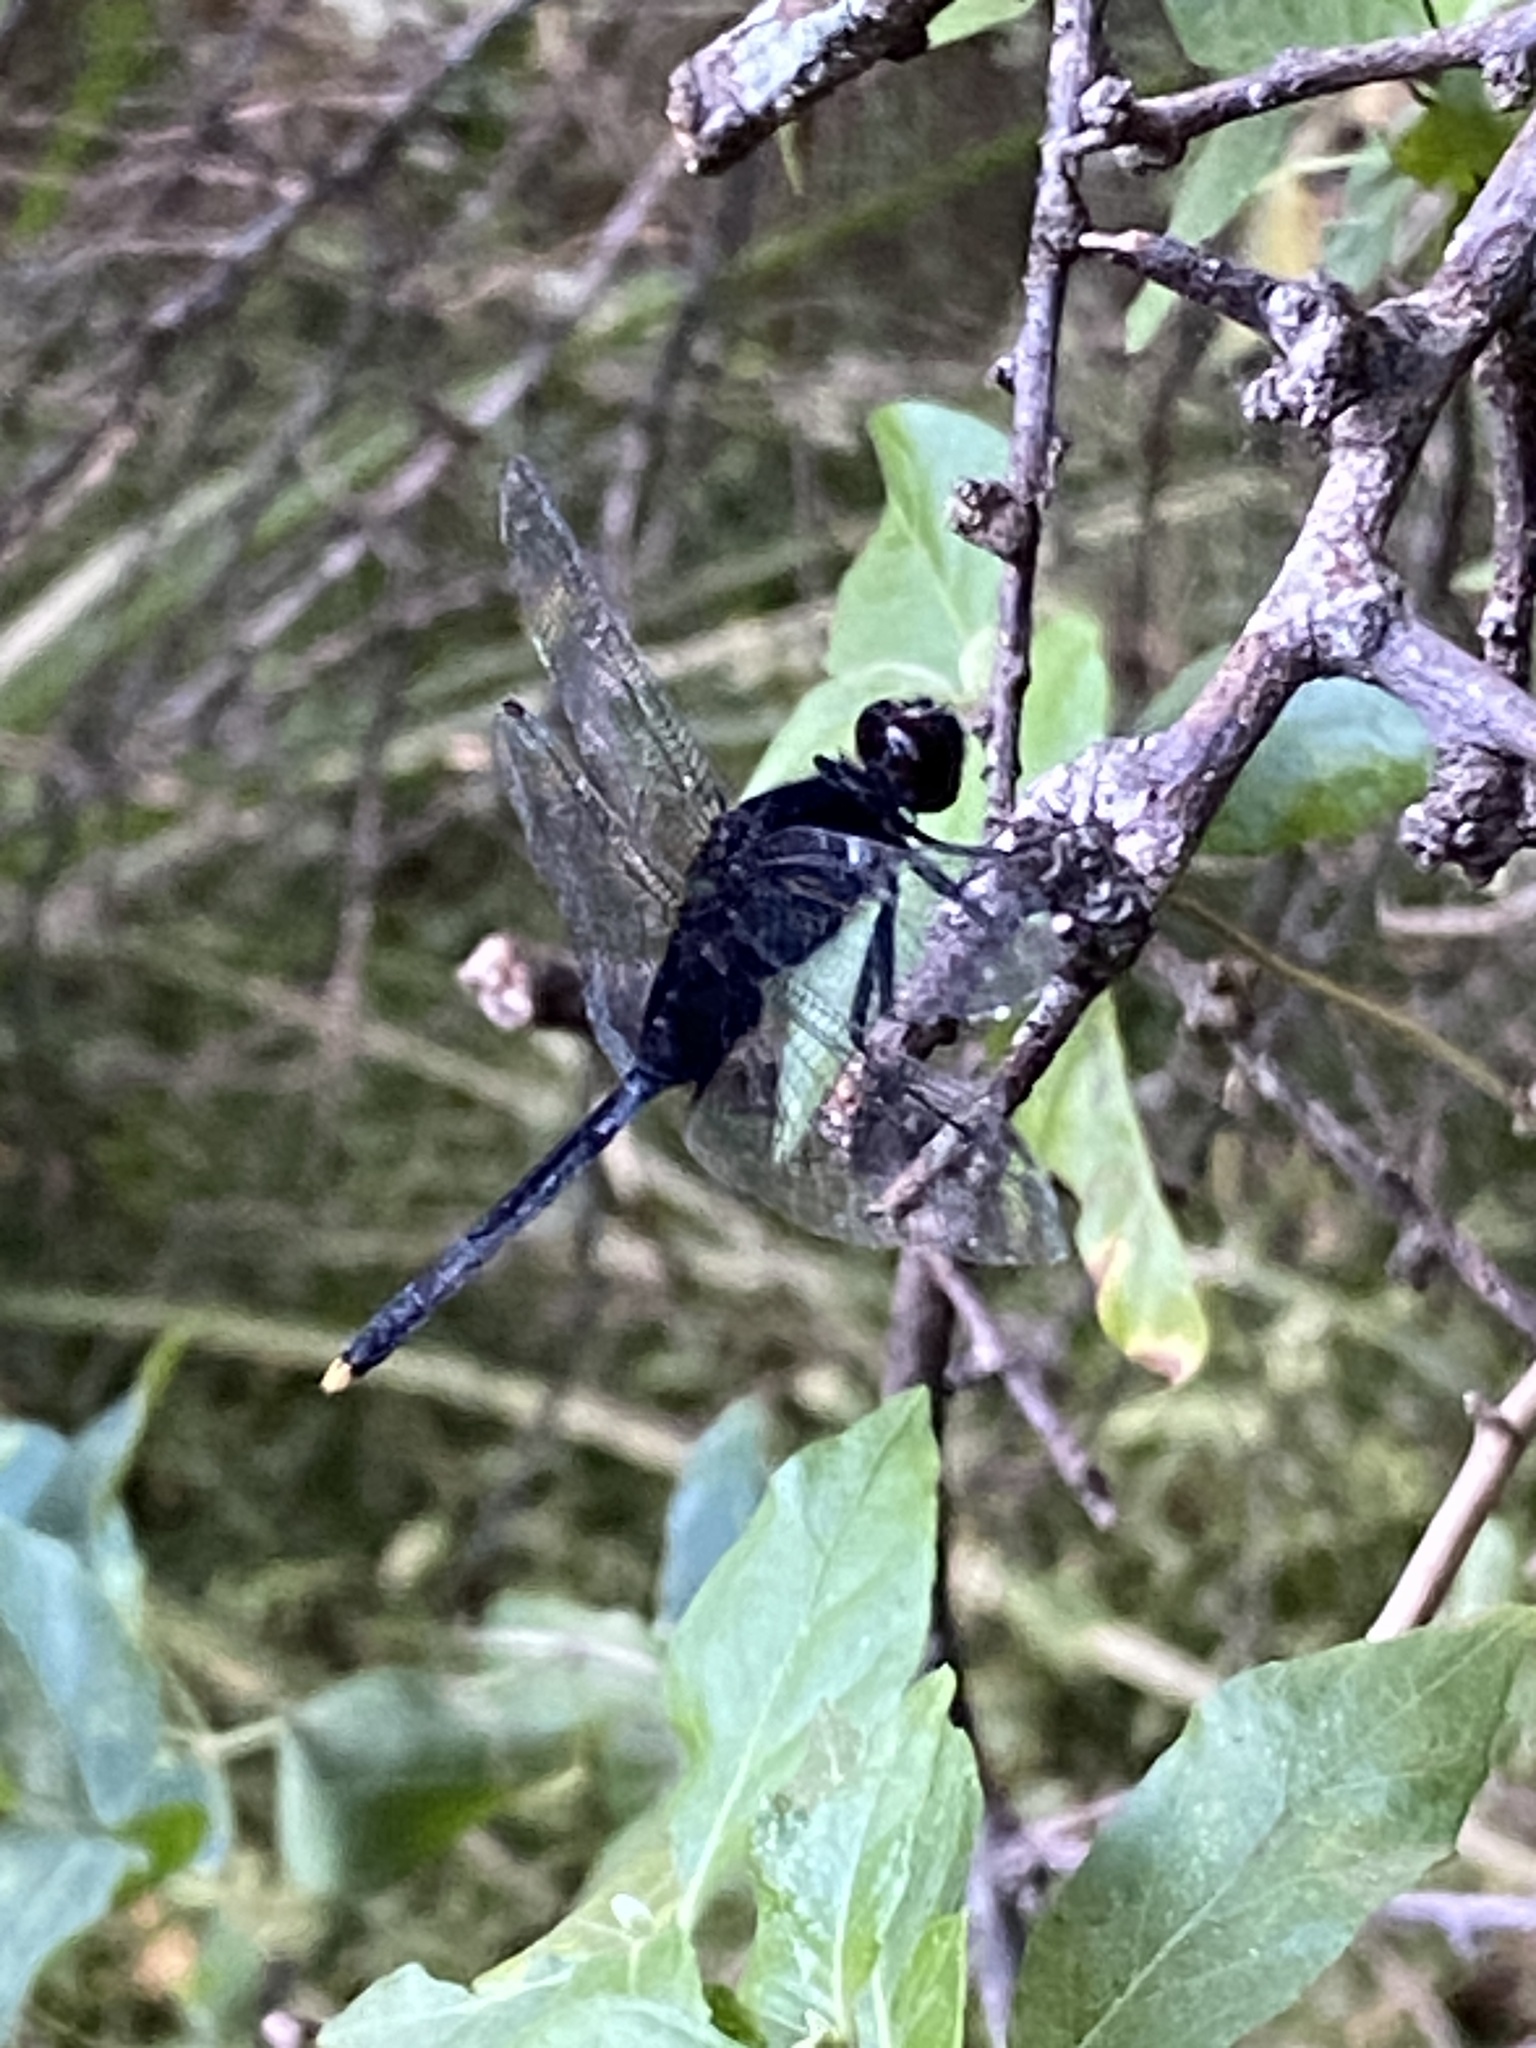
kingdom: Animalia
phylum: Arthropoda
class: Insecta
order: Odonata
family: Libellulidae
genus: Erythemis
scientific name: Erythemis attala
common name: Black pondhawk
